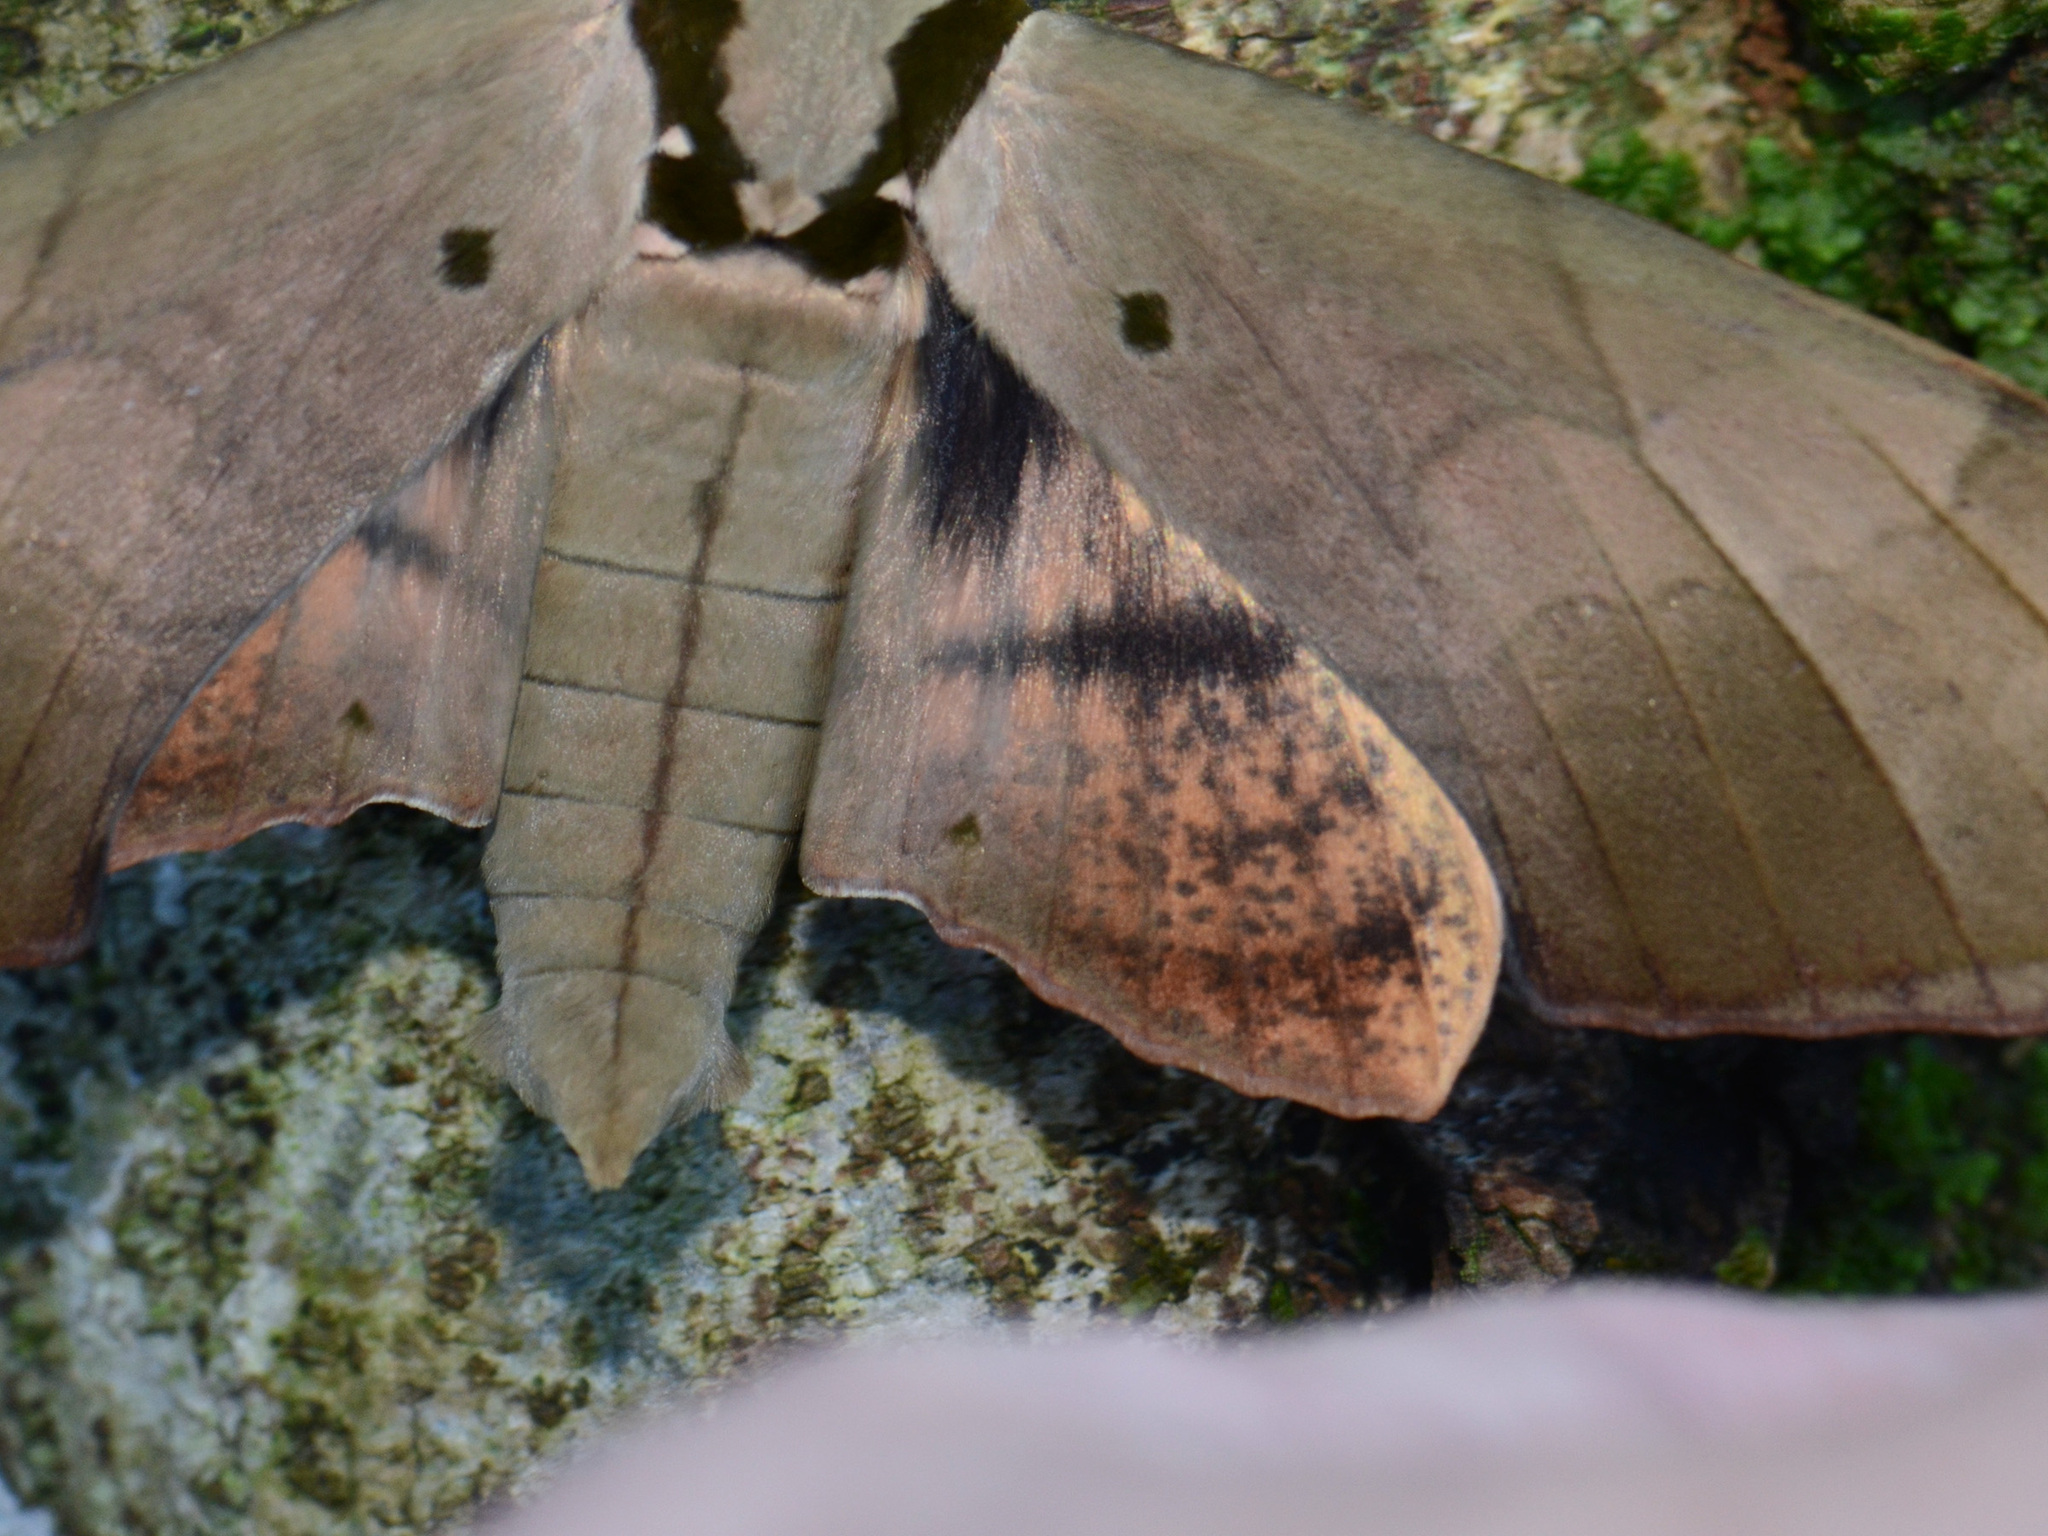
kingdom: Animalia
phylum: Arthropoda
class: Insecta
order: Lepidoptera
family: Sphingidae
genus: Ambulyx
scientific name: Ambulyx staudingeri
